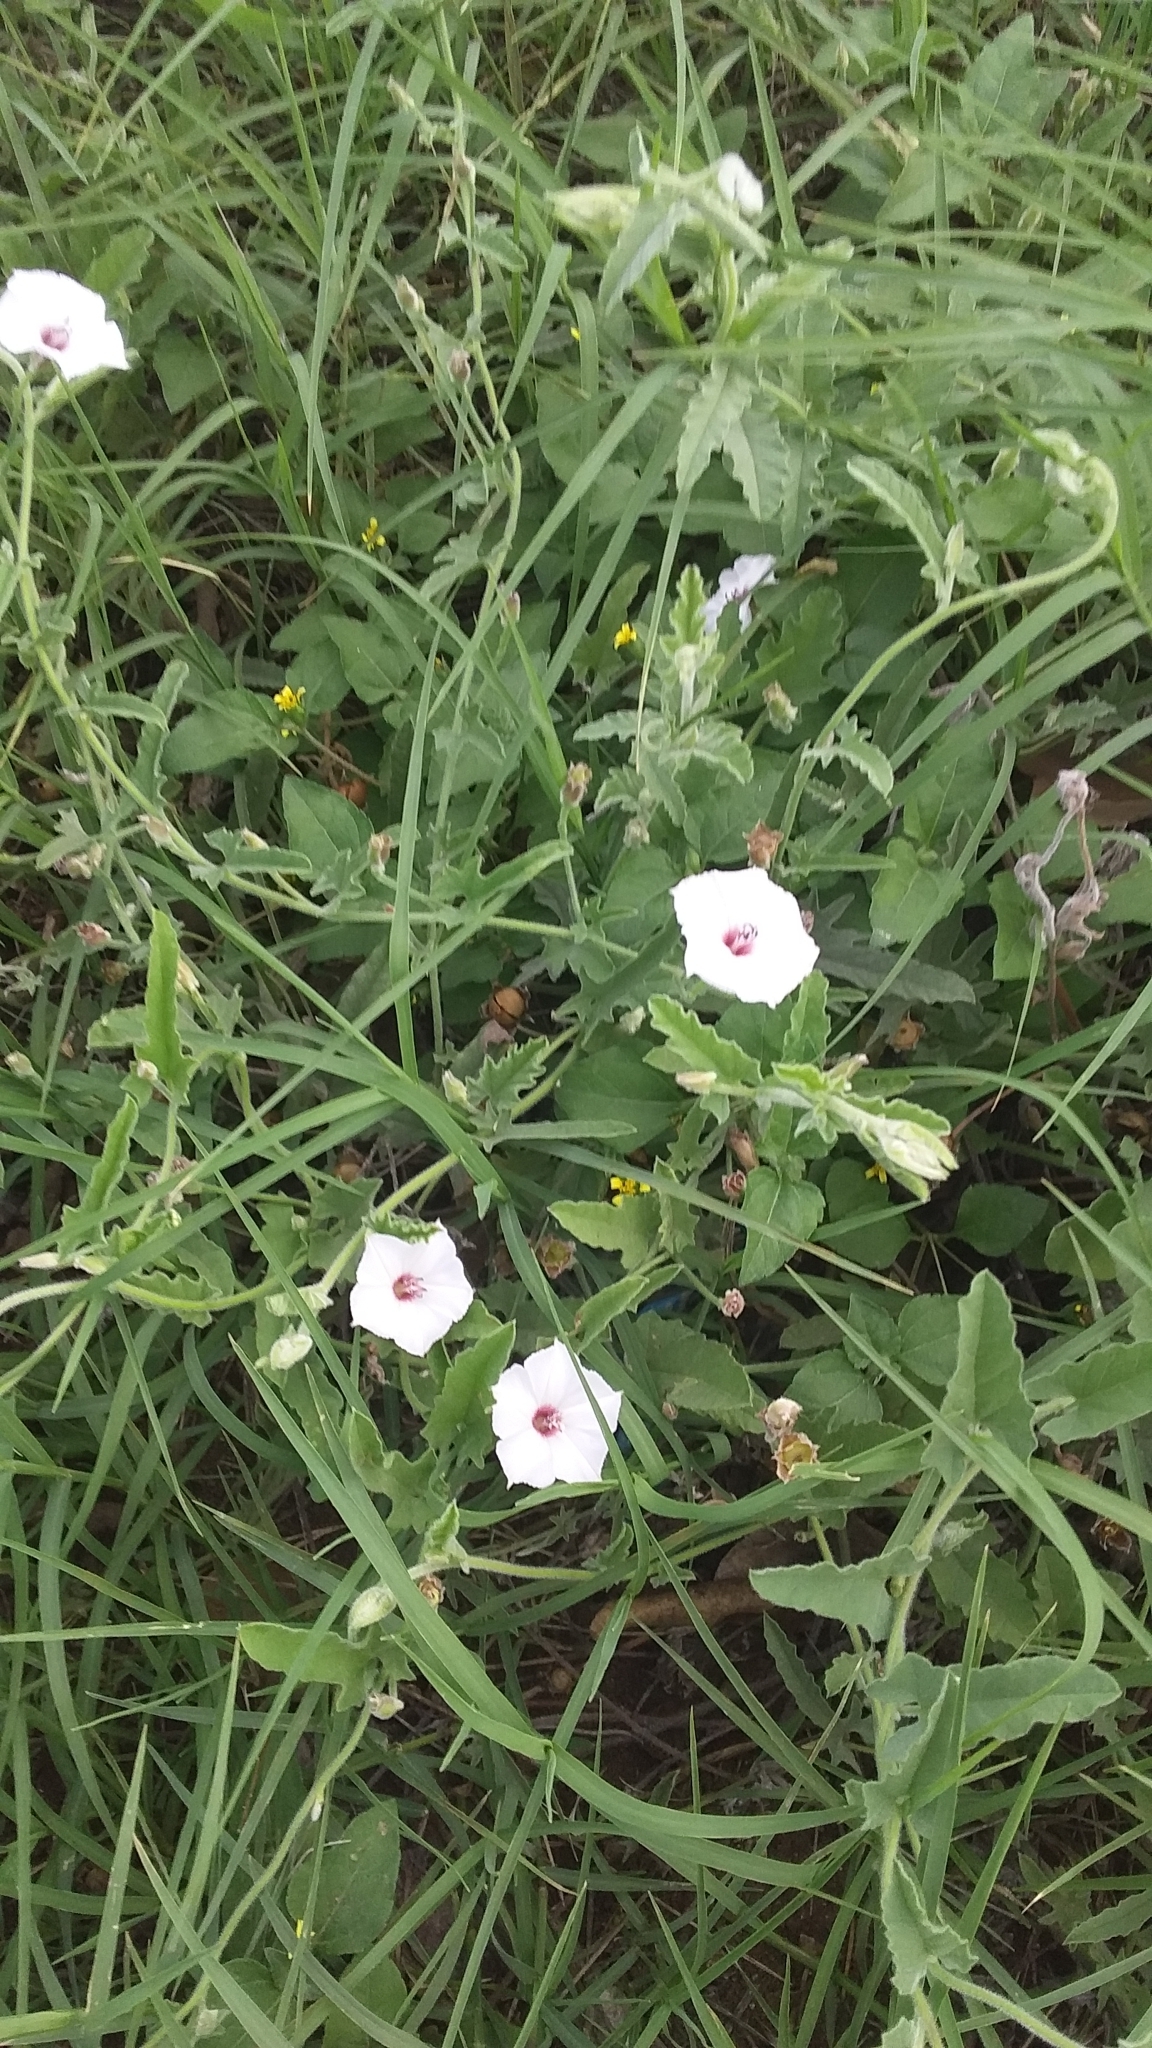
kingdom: Plantae
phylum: Tracheophyta
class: Magnoliopsida
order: Solanales
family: Convolvulaceae
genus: Convolvulus
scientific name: Convolvulus equitans
